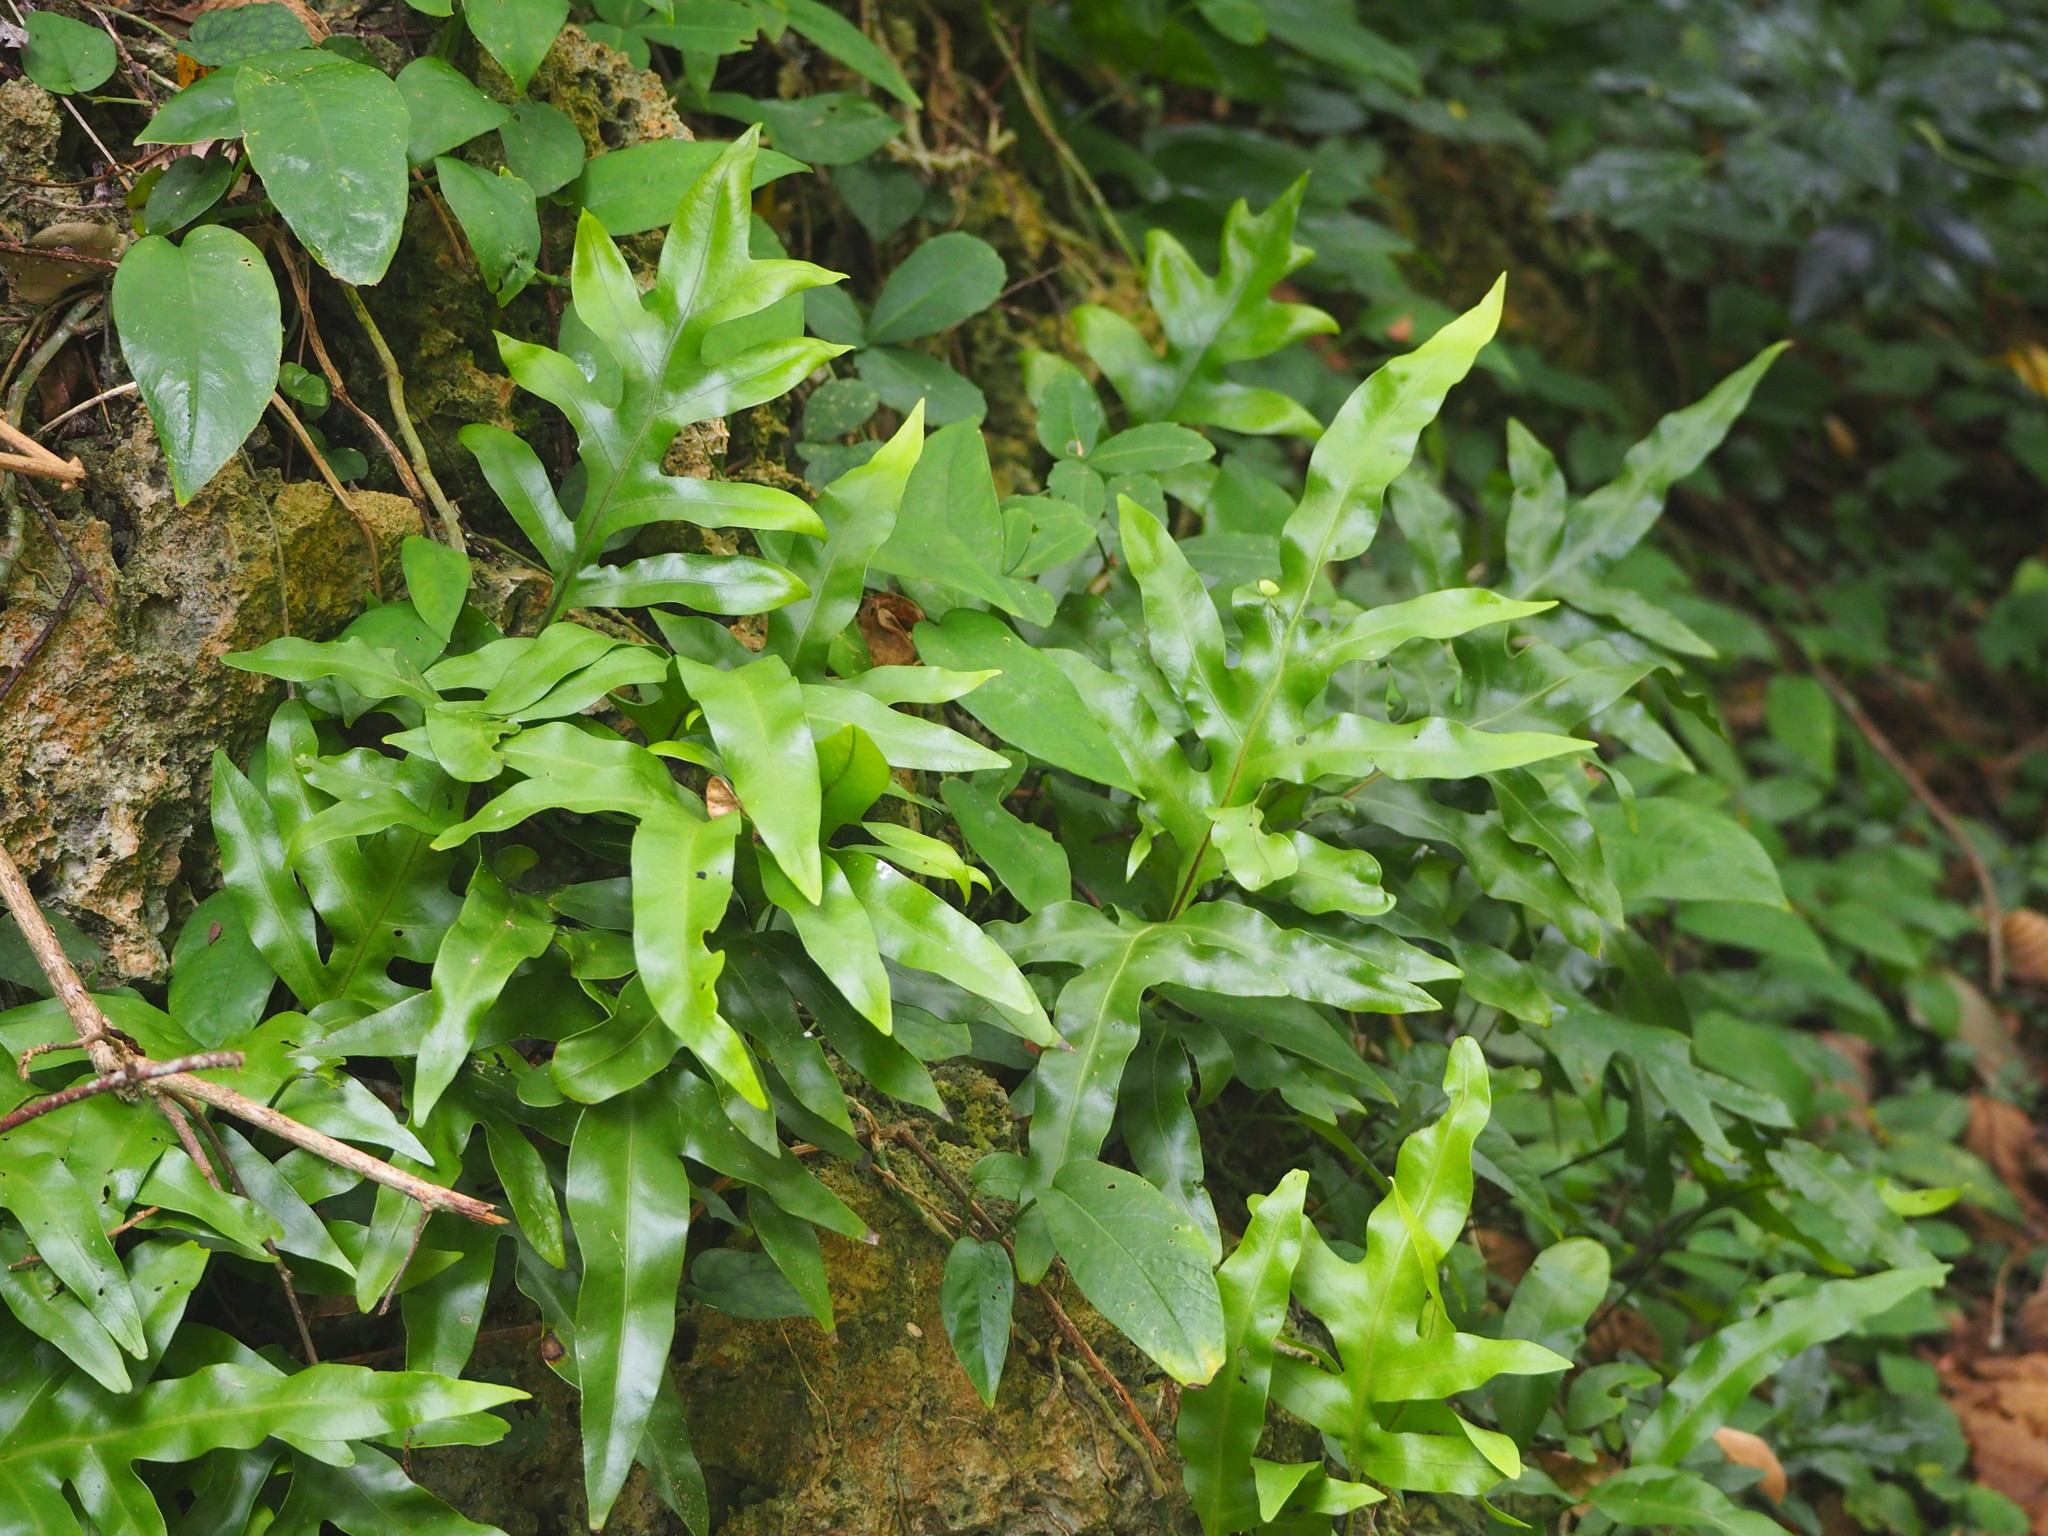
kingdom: Plantae
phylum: Tracheophyta
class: Polypodiopsida
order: Polypodiales
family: Polypodiaceae
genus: Microsorum
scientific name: Microsorum scolopendria
